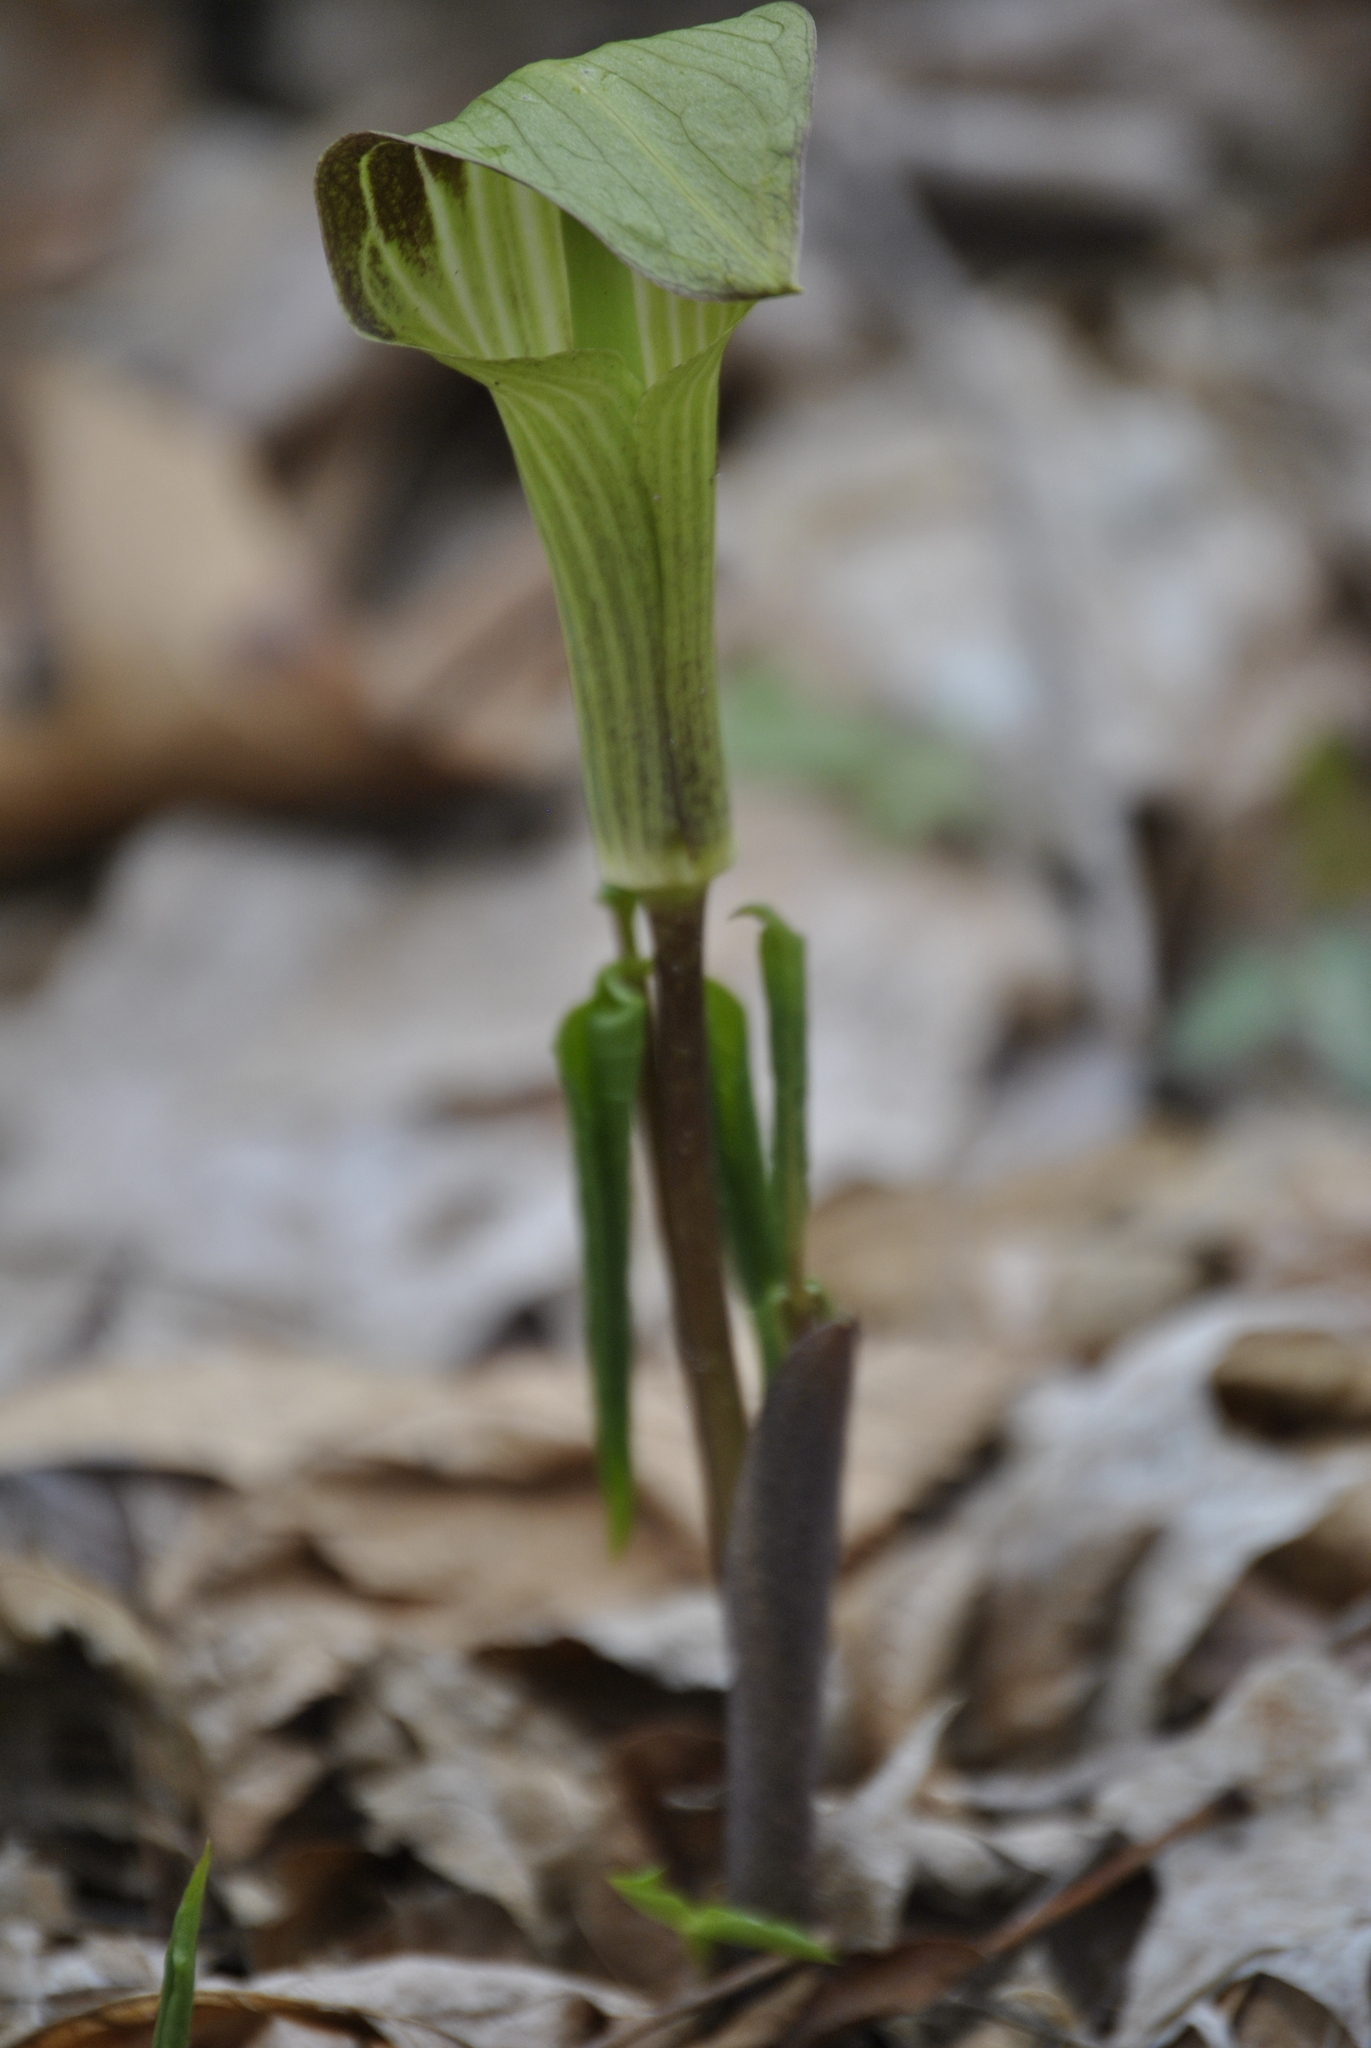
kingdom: Plantae
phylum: Tracheophyta
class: Liliopsida
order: Alismatales
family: Araceae
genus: Arisaema
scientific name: Arisaema triphyllum
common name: Jack-in-the-pulpit
